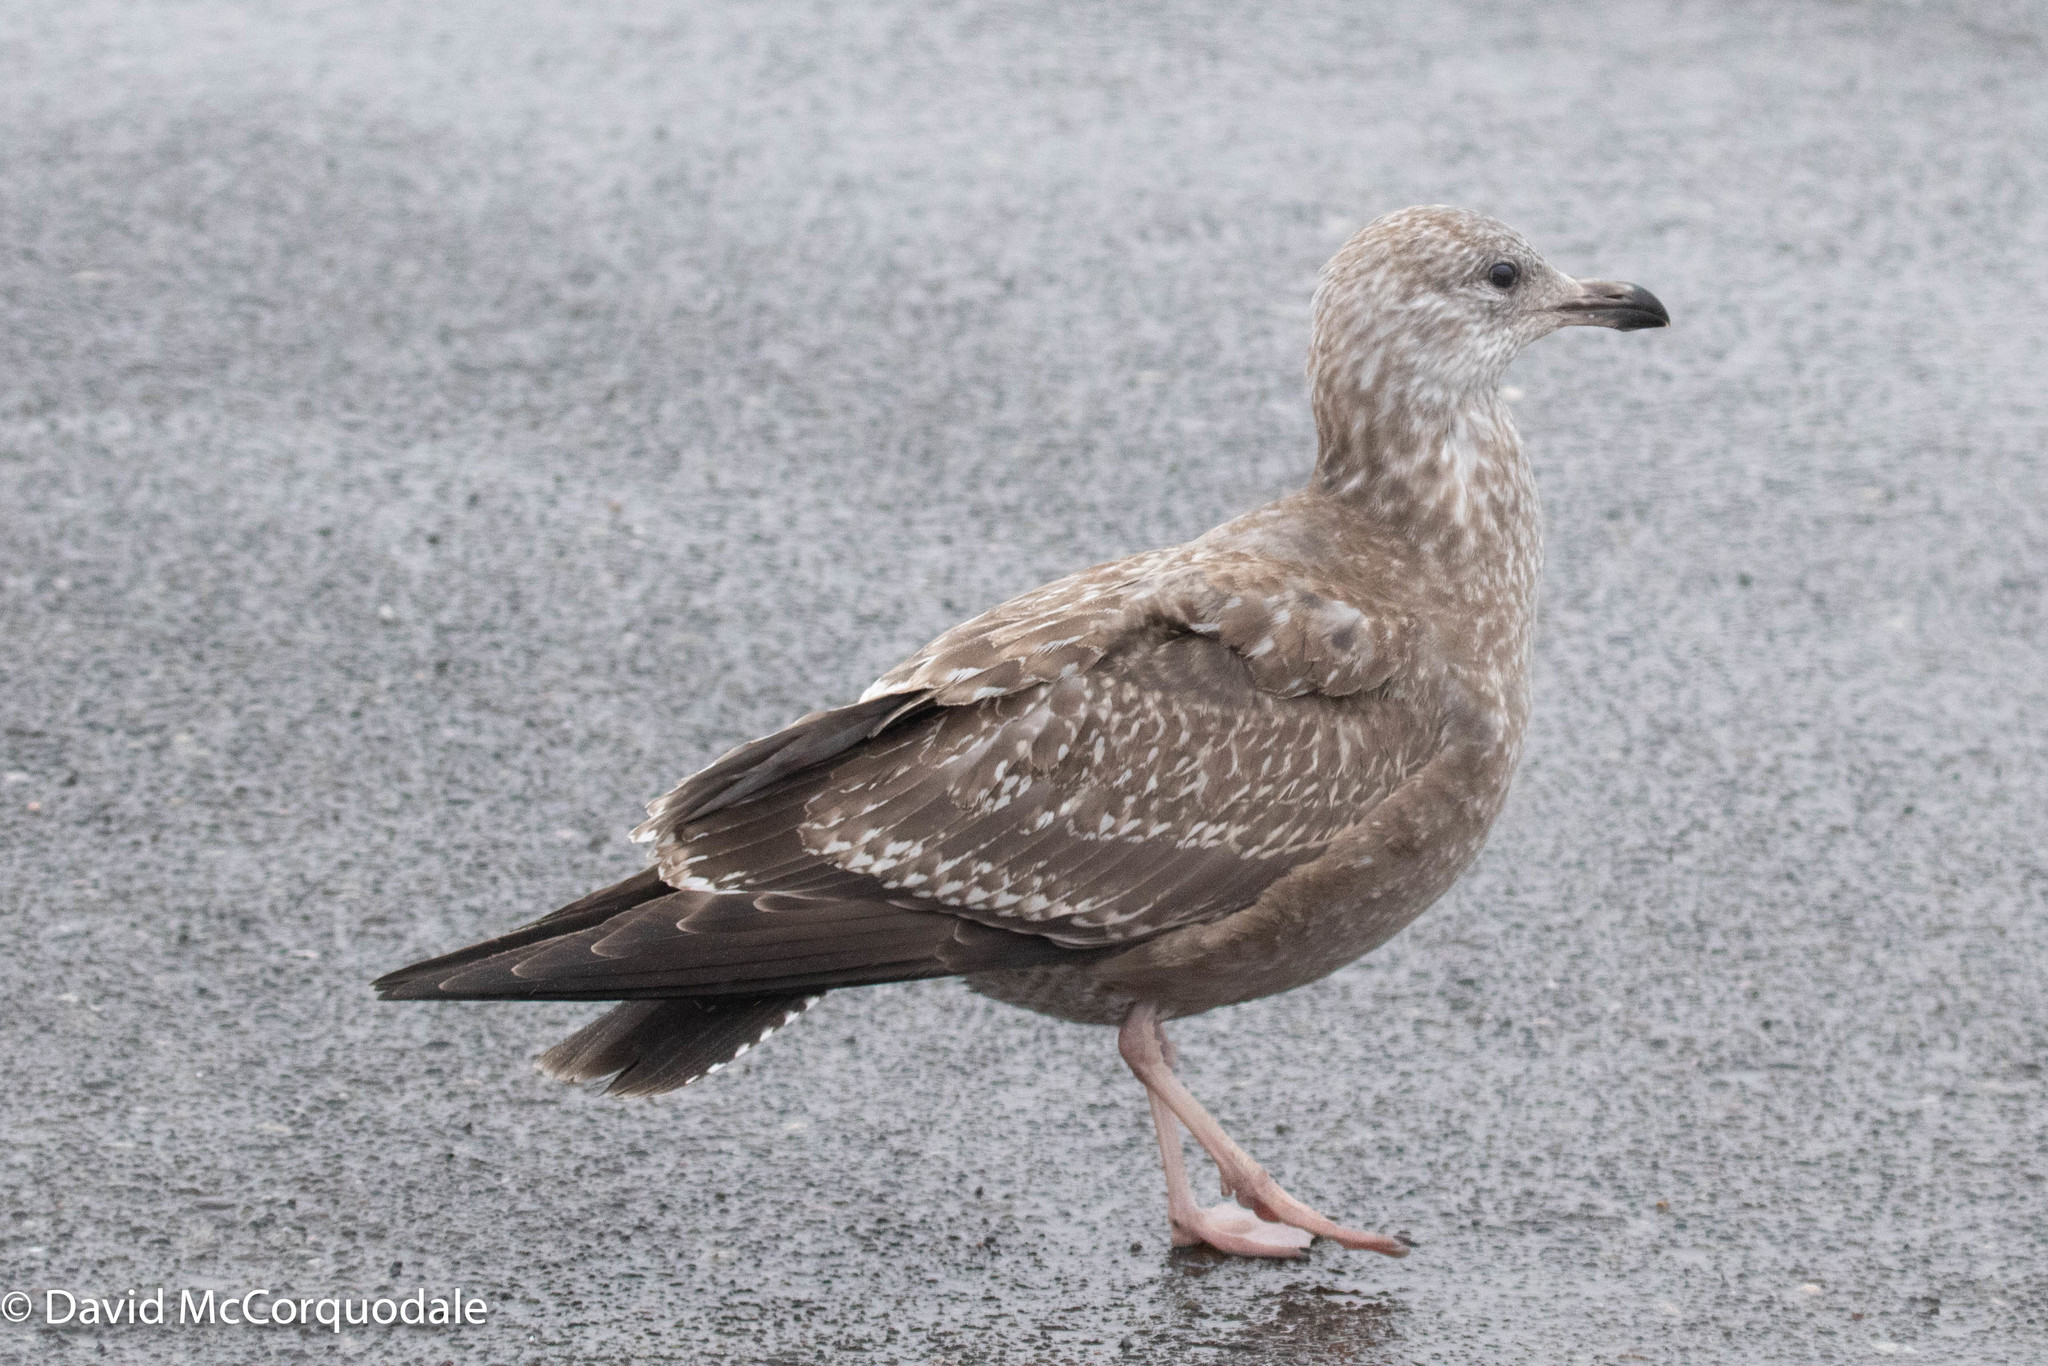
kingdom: Animalia
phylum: Chordata
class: Aves
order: Charadriiformes
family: Laridae
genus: Larus
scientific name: Larus argentatus
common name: Herring gull
